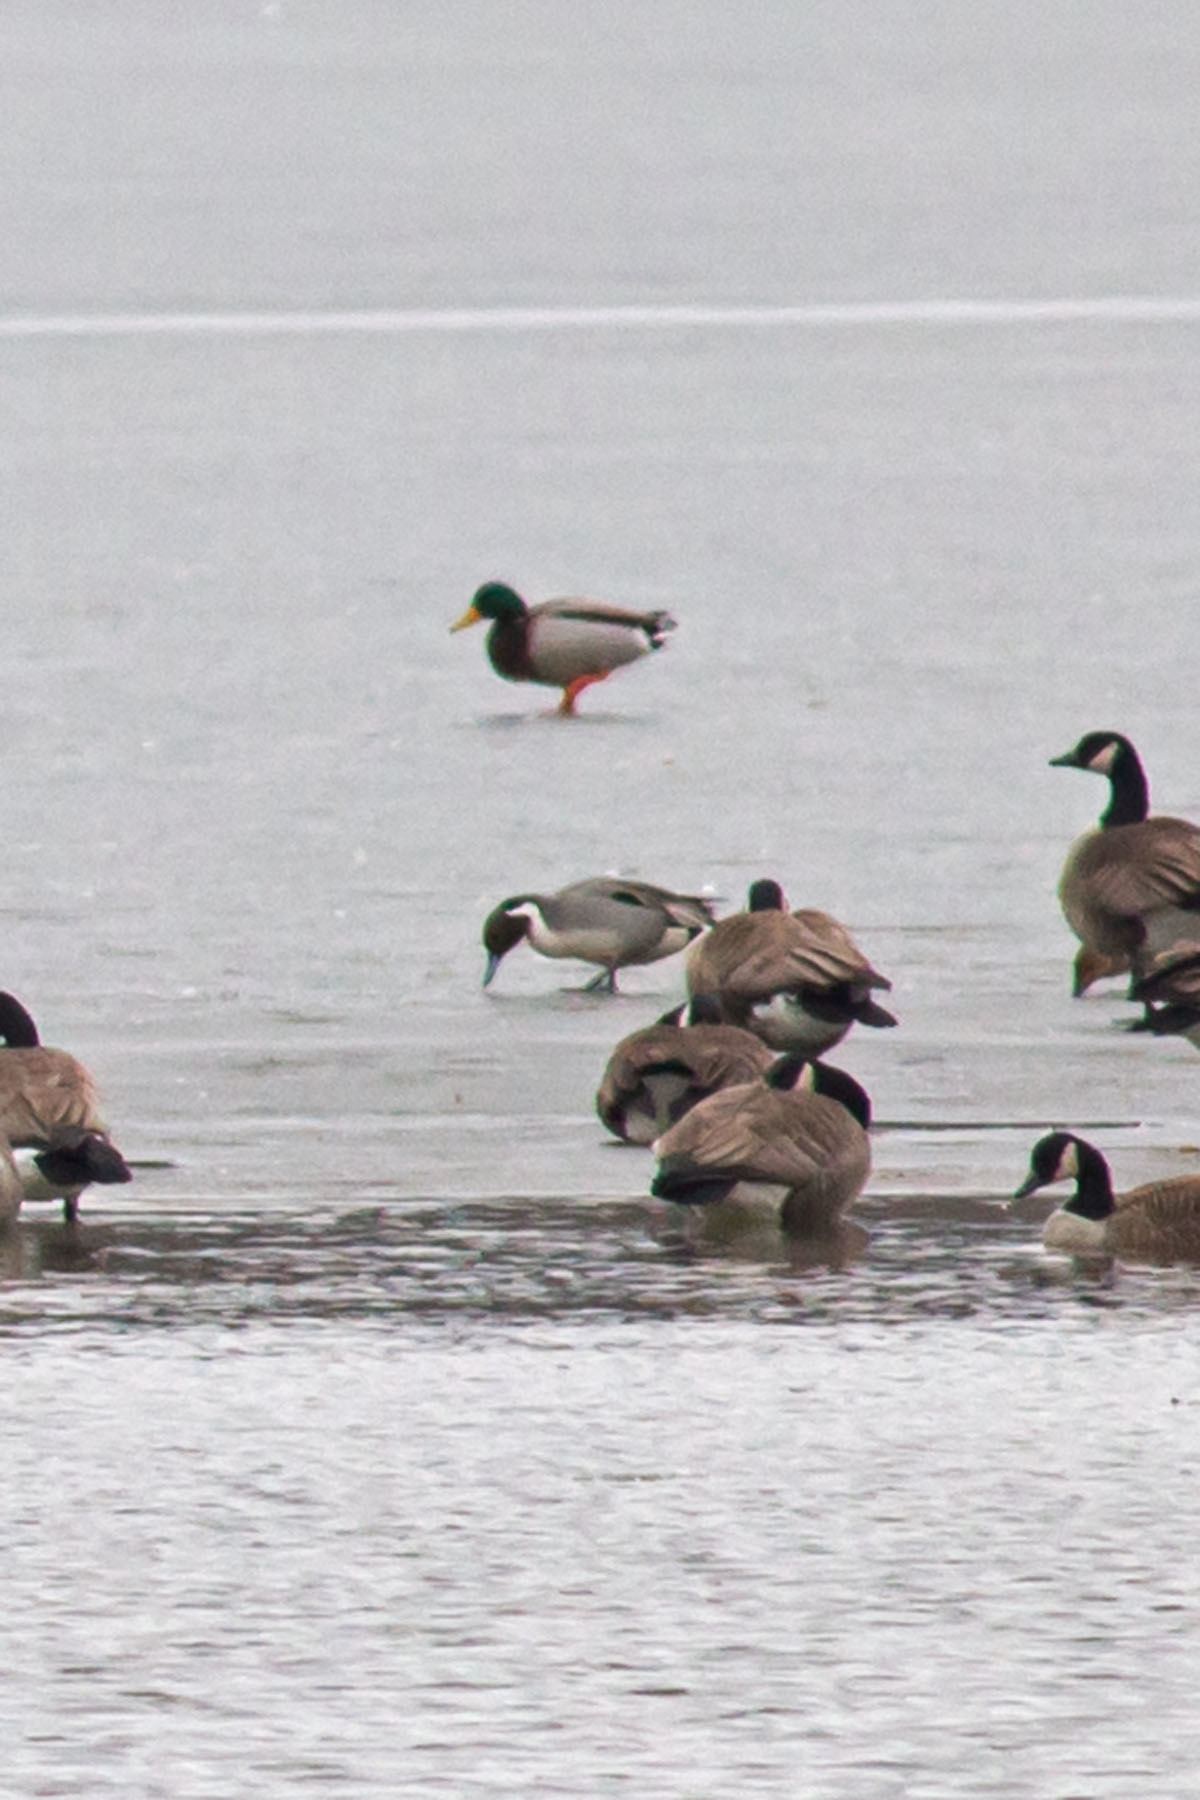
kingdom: Animalia
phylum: Chordata
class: Aves
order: Anseriformes
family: Anatidae
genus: Anas
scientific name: Anas acuta
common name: Northern pintail
